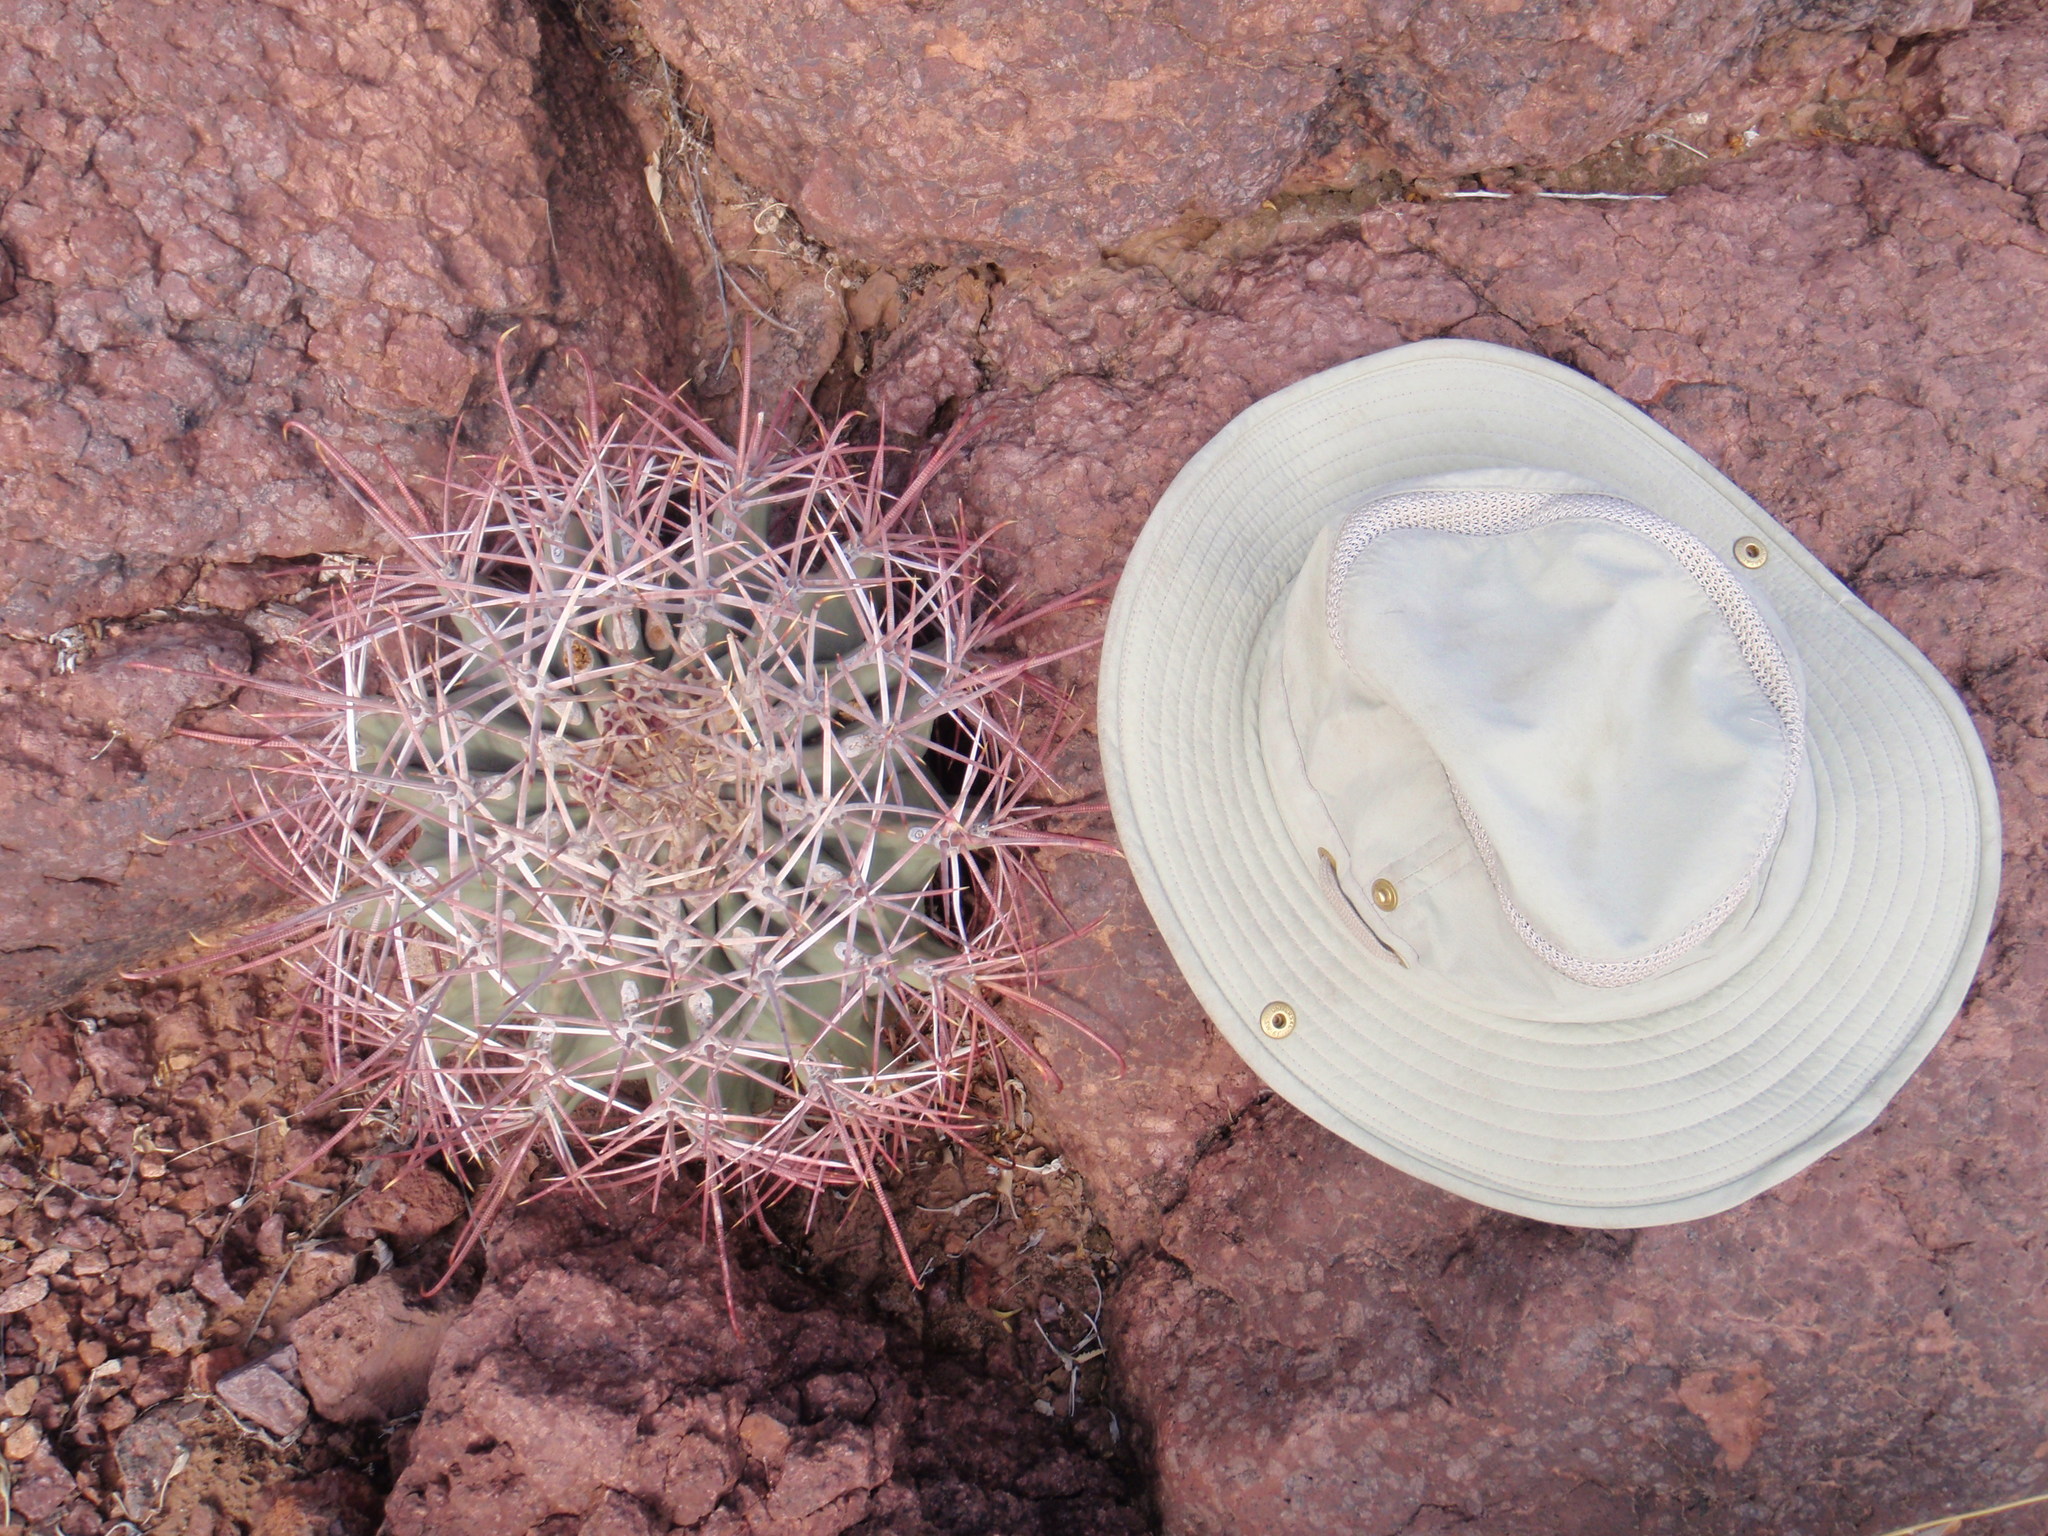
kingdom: Plantae
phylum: Tracheophyta
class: Magnoliopsida
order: Caryophyllales
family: Cactaceae
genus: Ferocactus
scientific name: Ferocactus emoryi
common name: Emory's barrel cactus
